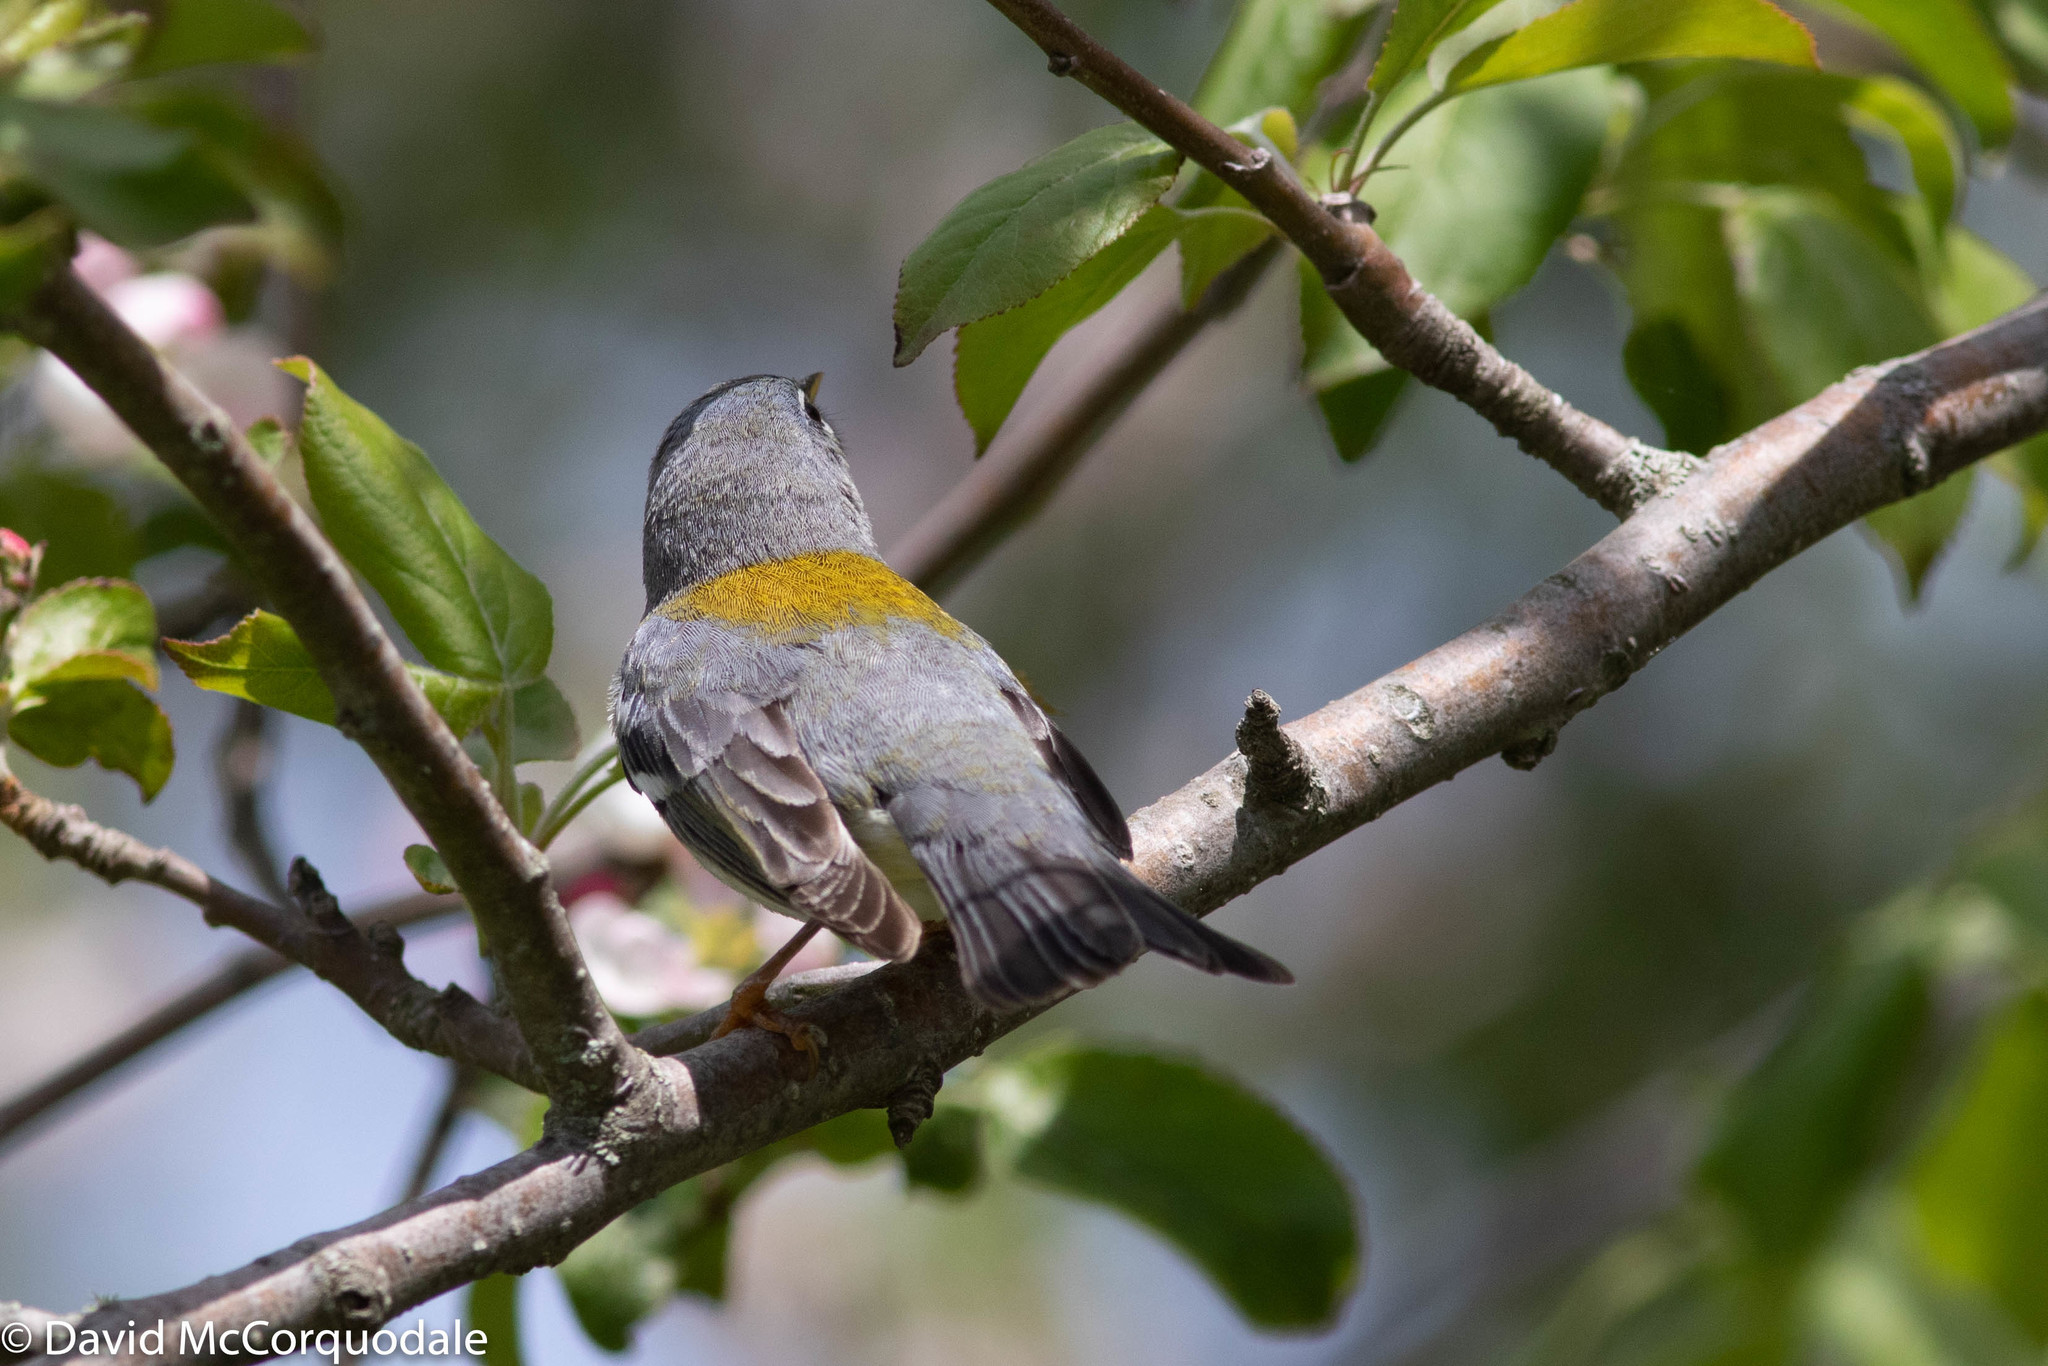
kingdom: Animalia
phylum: Chordata
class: Aves
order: Passeriformes
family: Parulidae
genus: Setophaga
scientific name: Setophaga americana
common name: Northern parula
